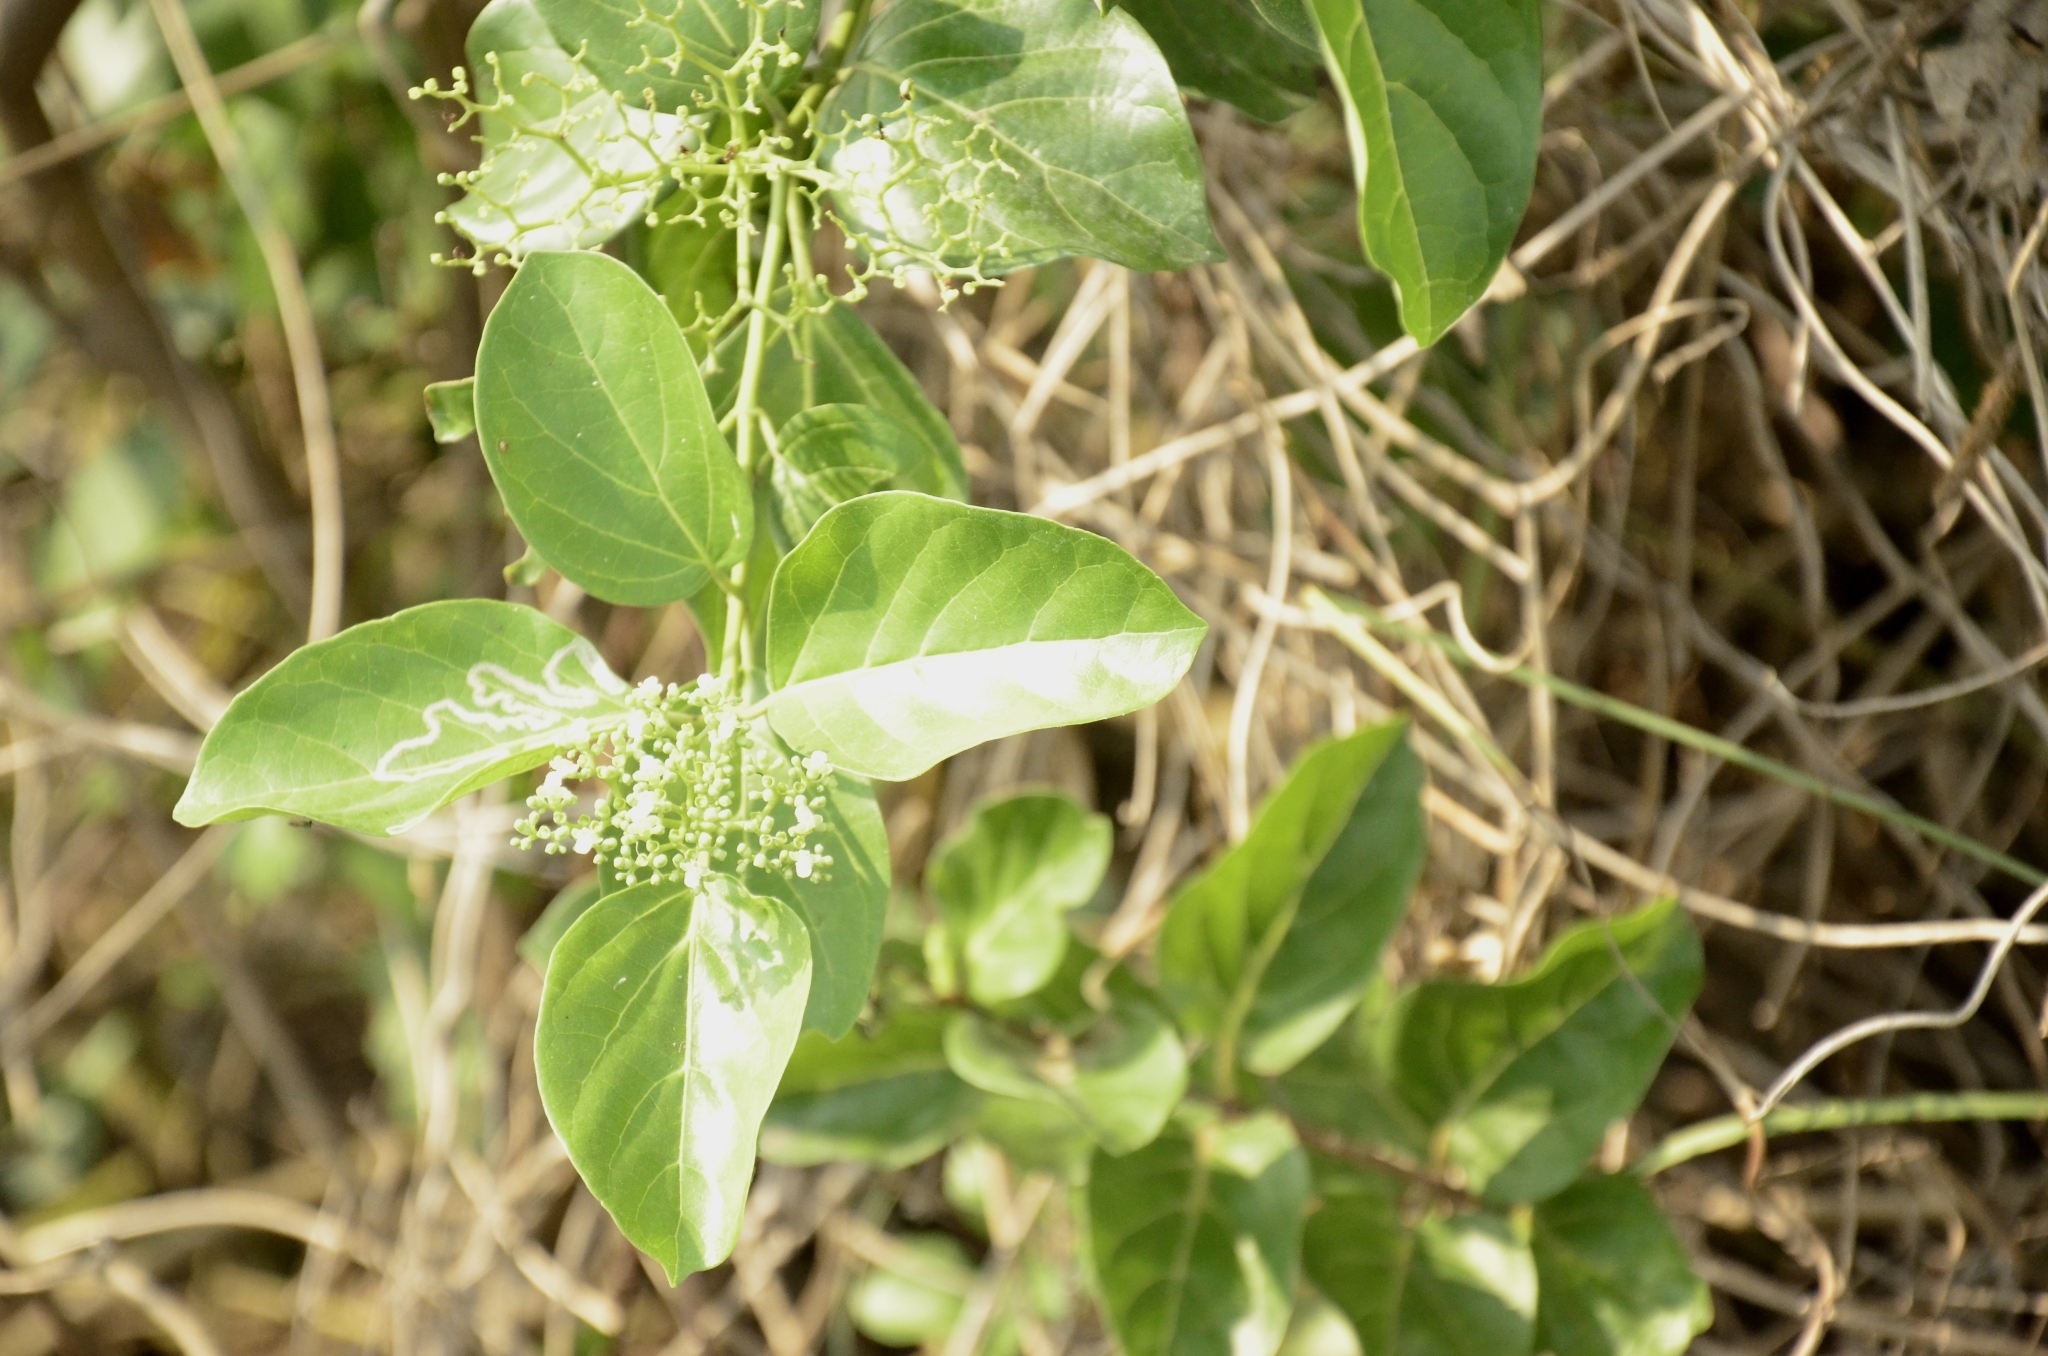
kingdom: Plantae
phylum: Tracheophyta
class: Magnoliopsida
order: Lamiales
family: Lamiaceae
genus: Premna
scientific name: Premna serratifolia
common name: Bastard guelder
